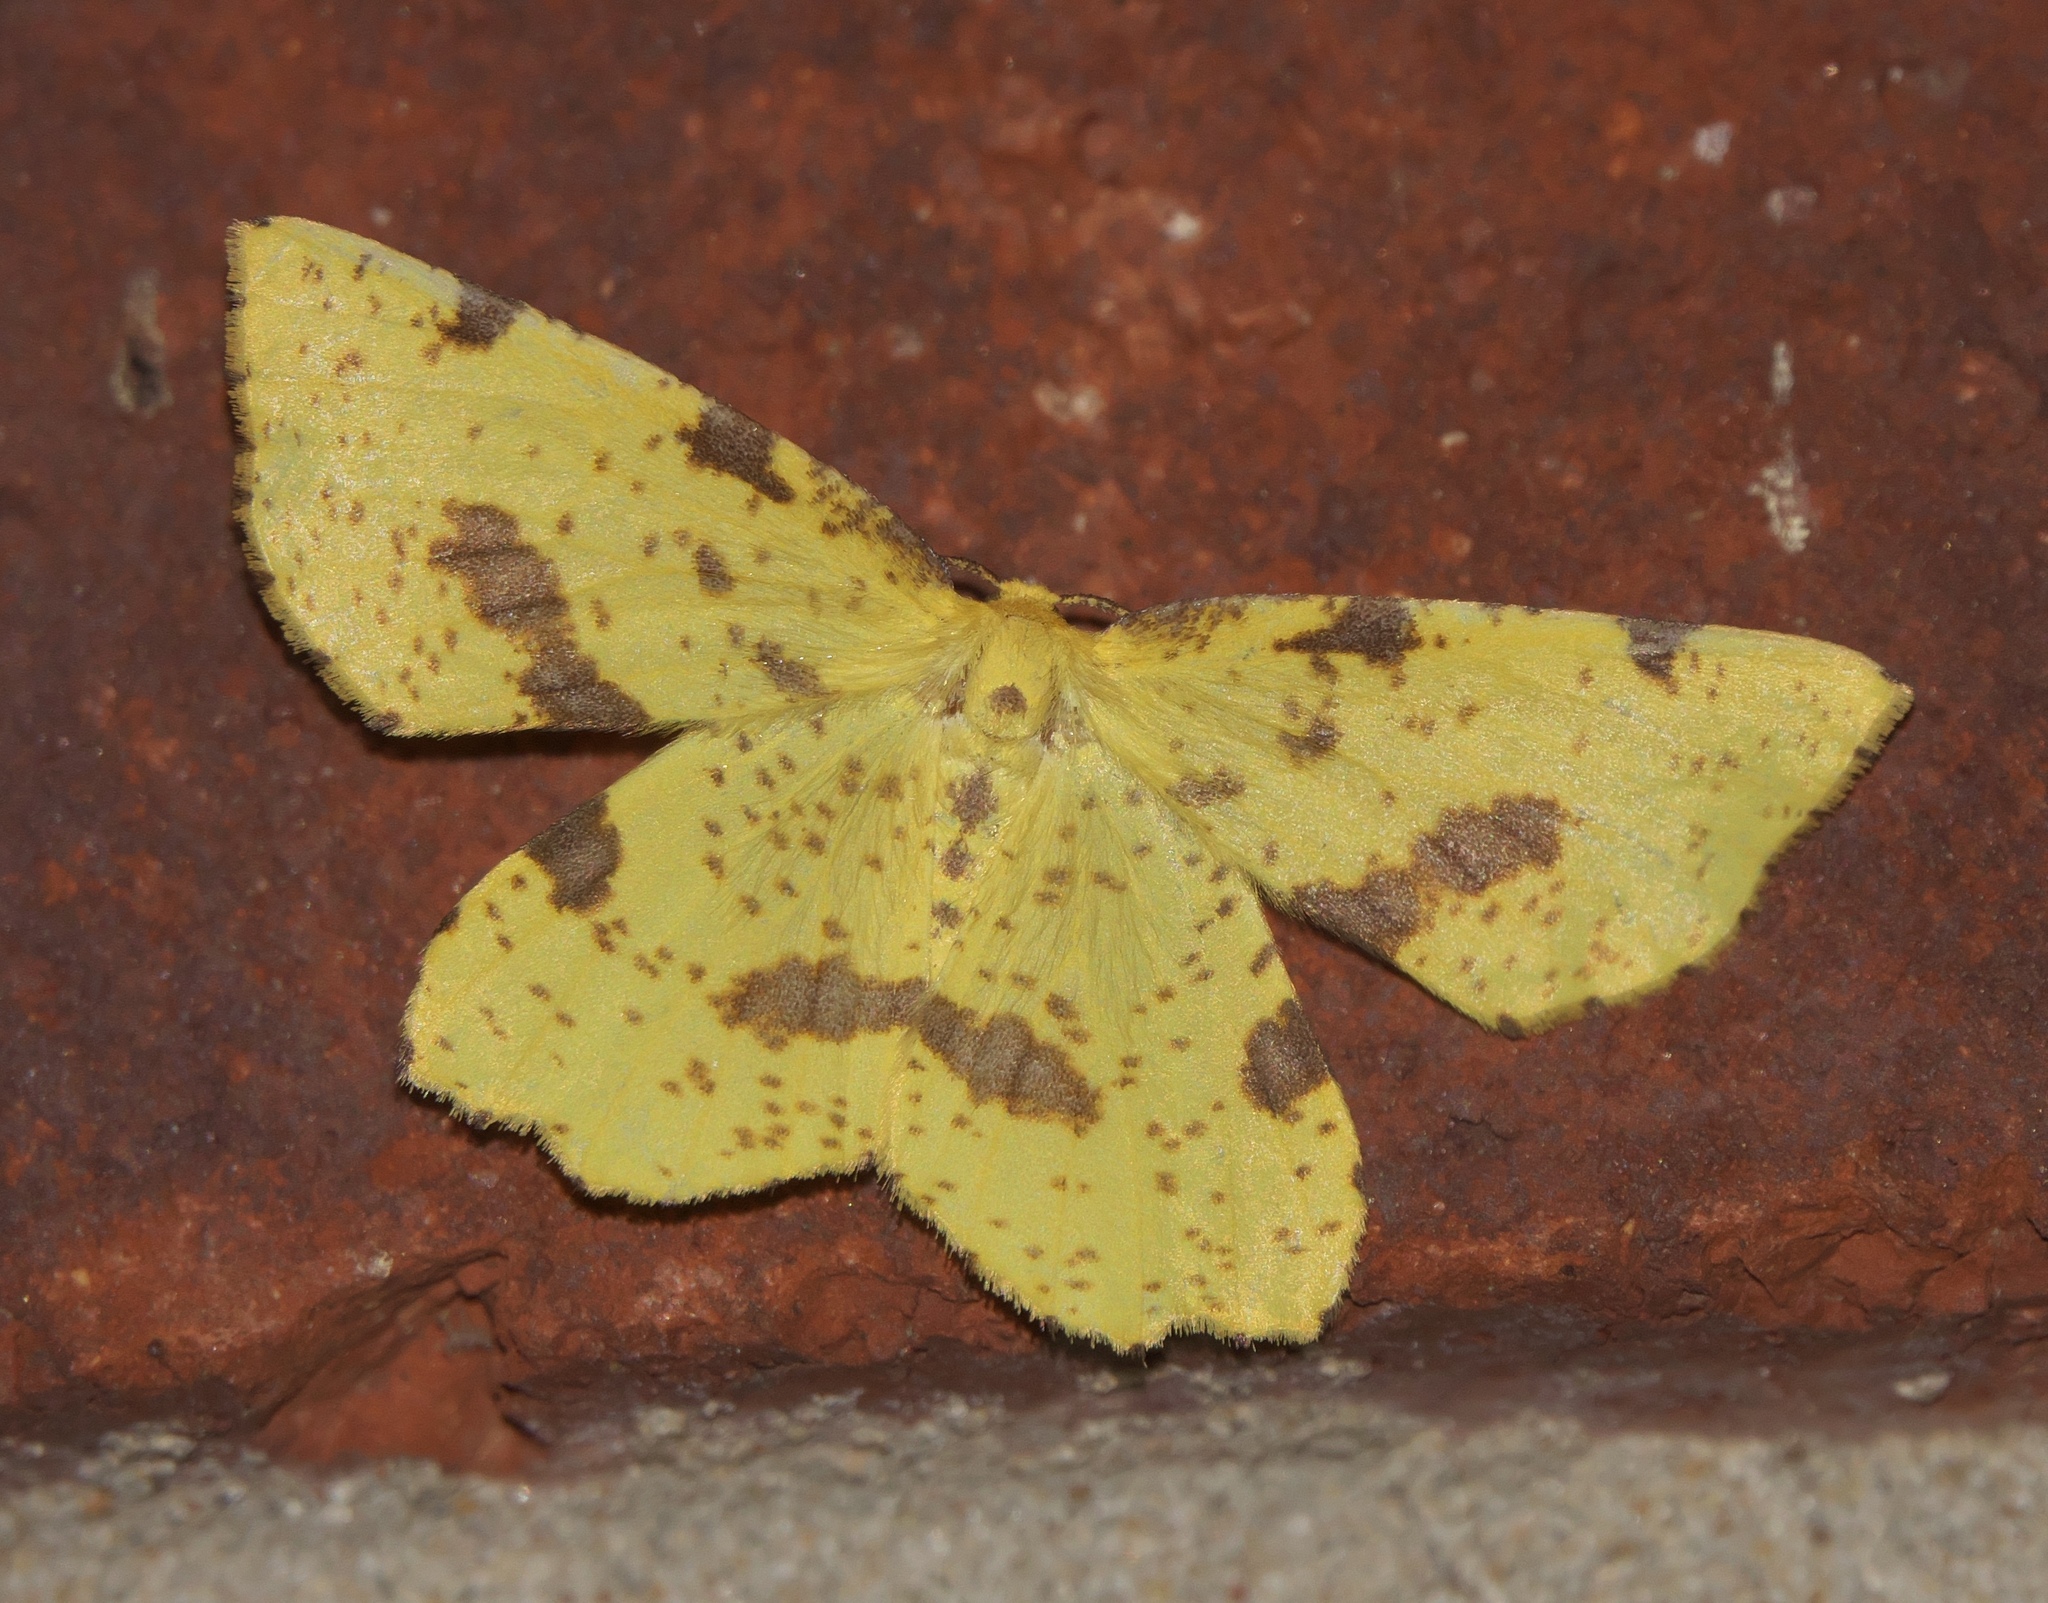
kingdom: Animalia
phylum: Arthropoda
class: Insecta
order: Lepidoptera
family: Geometridae
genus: Xanthotype
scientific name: Xanthotype
